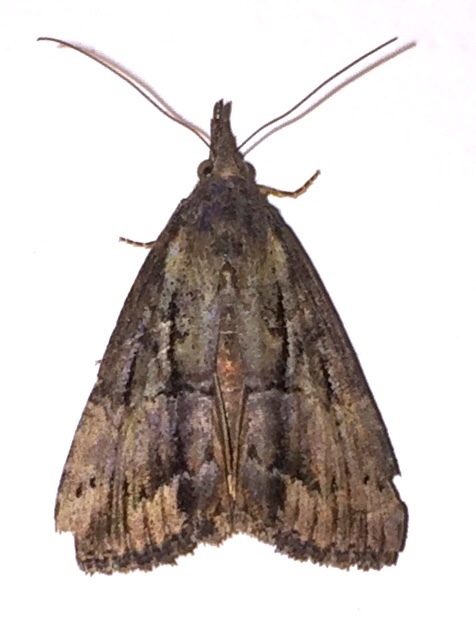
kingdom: Animalia
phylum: Arthropoda
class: Insecta
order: Lepidoptera
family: Erebidae
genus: Hypena
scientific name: Hypena scabra
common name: Green cloverworm
